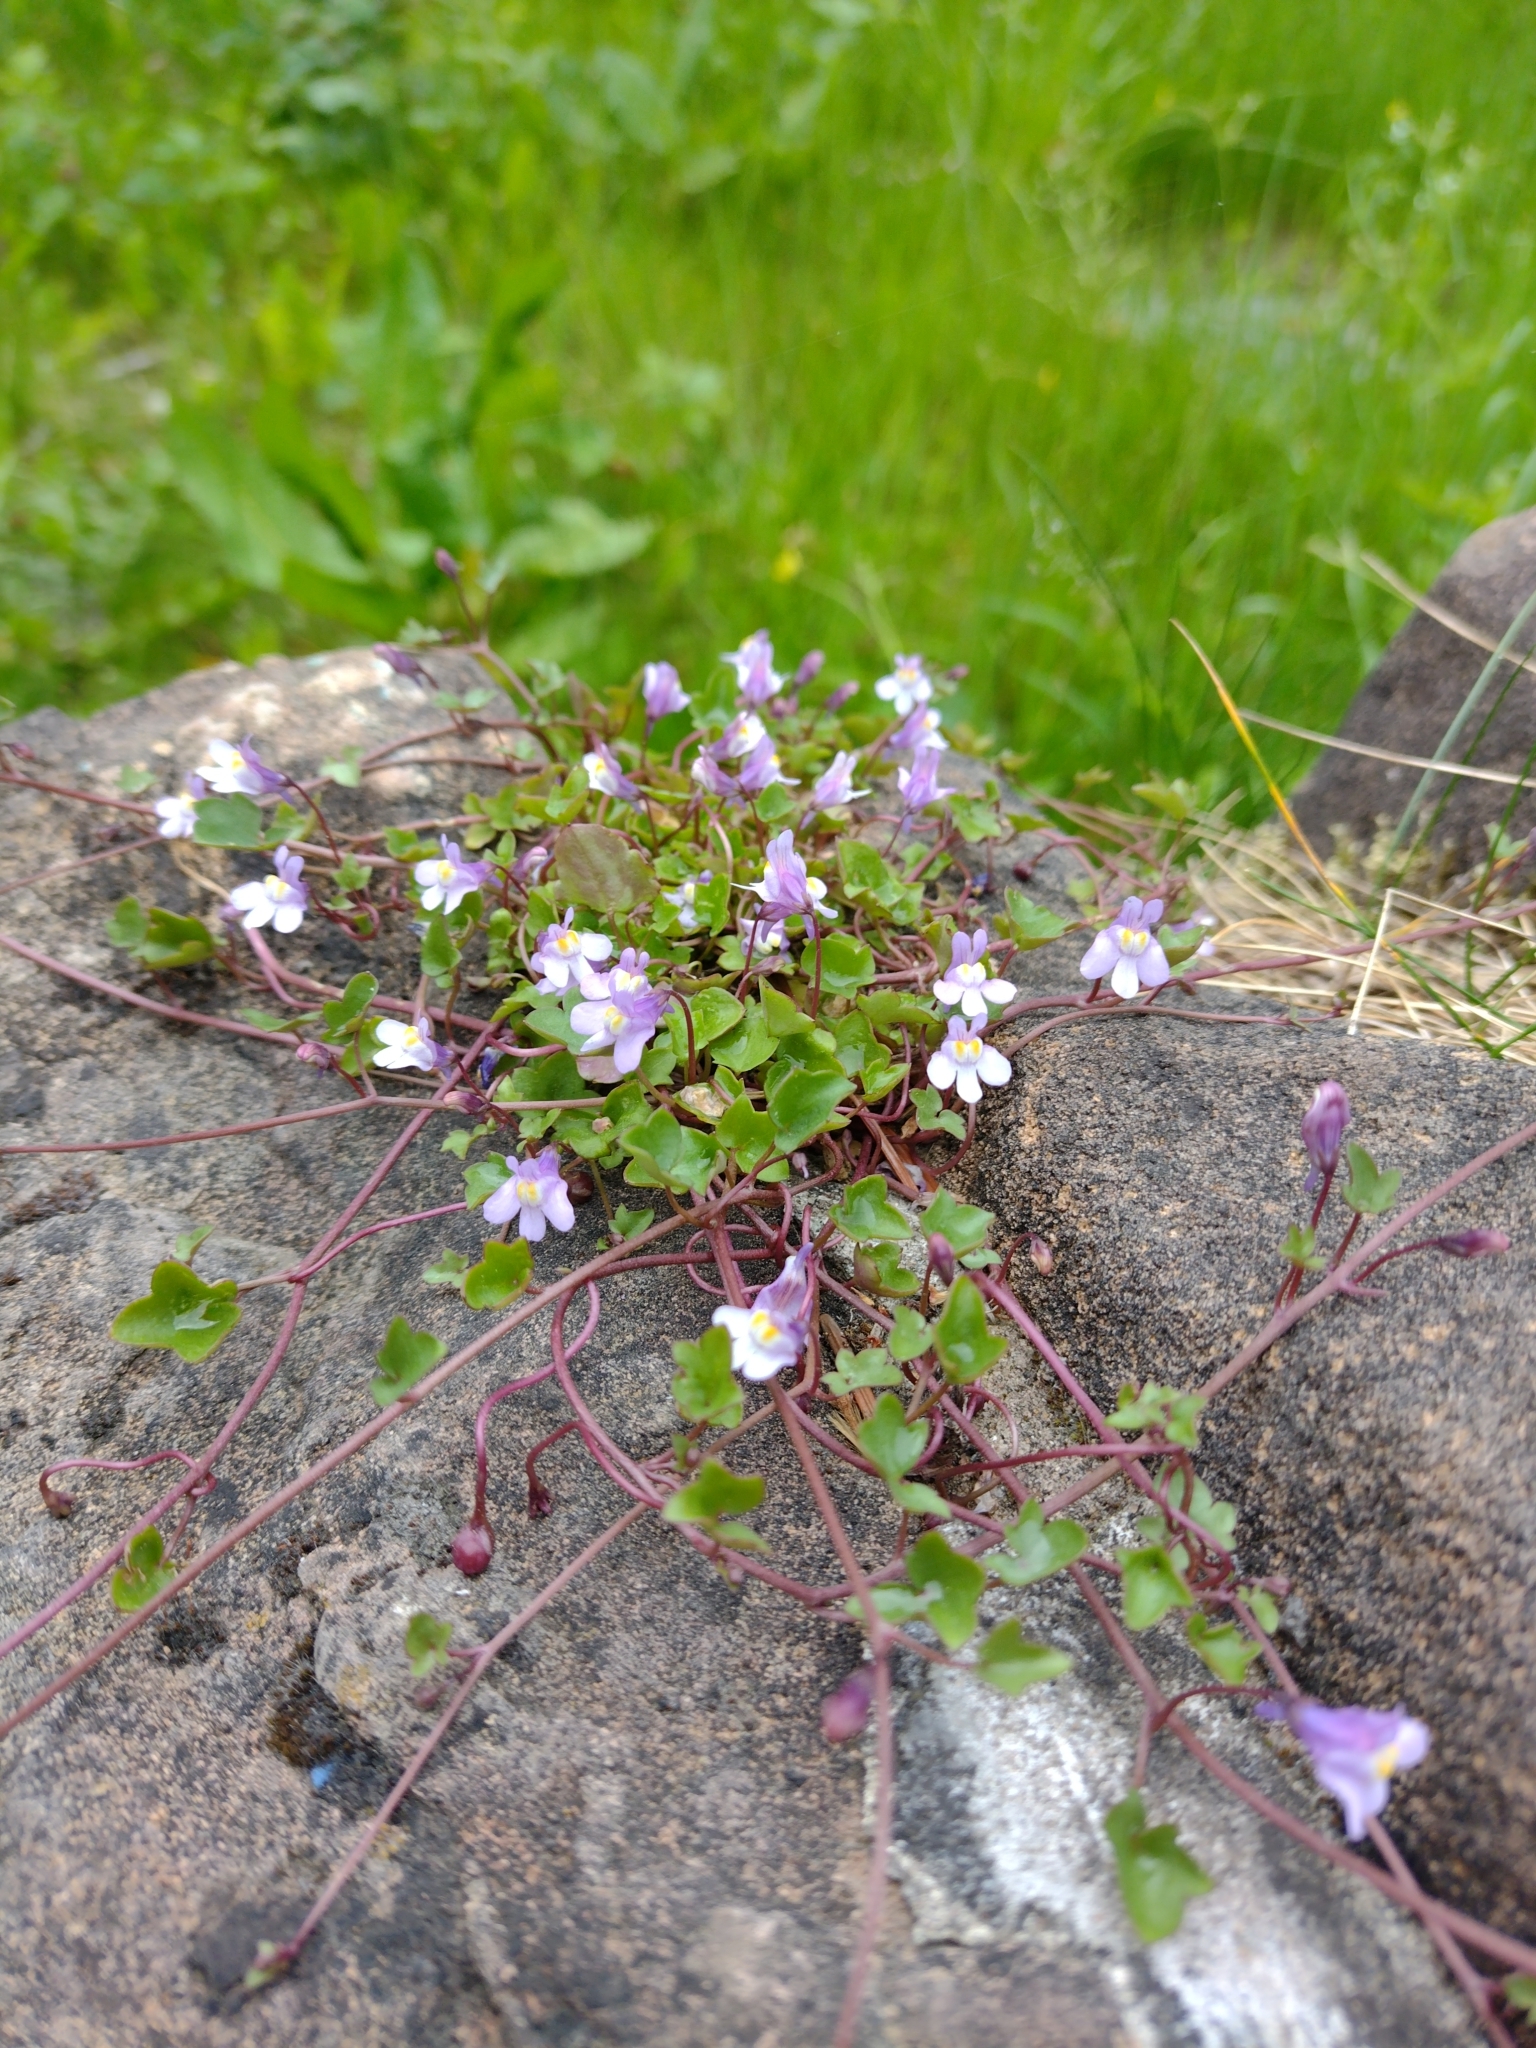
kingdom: Plantae
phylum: Tracheophyta
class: Magnoliopsida
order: Lamiales
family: Plantaginaceae
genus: Cymbalaria
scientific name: Cymbalaria muralis
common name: Ivy-leaved toadflax
